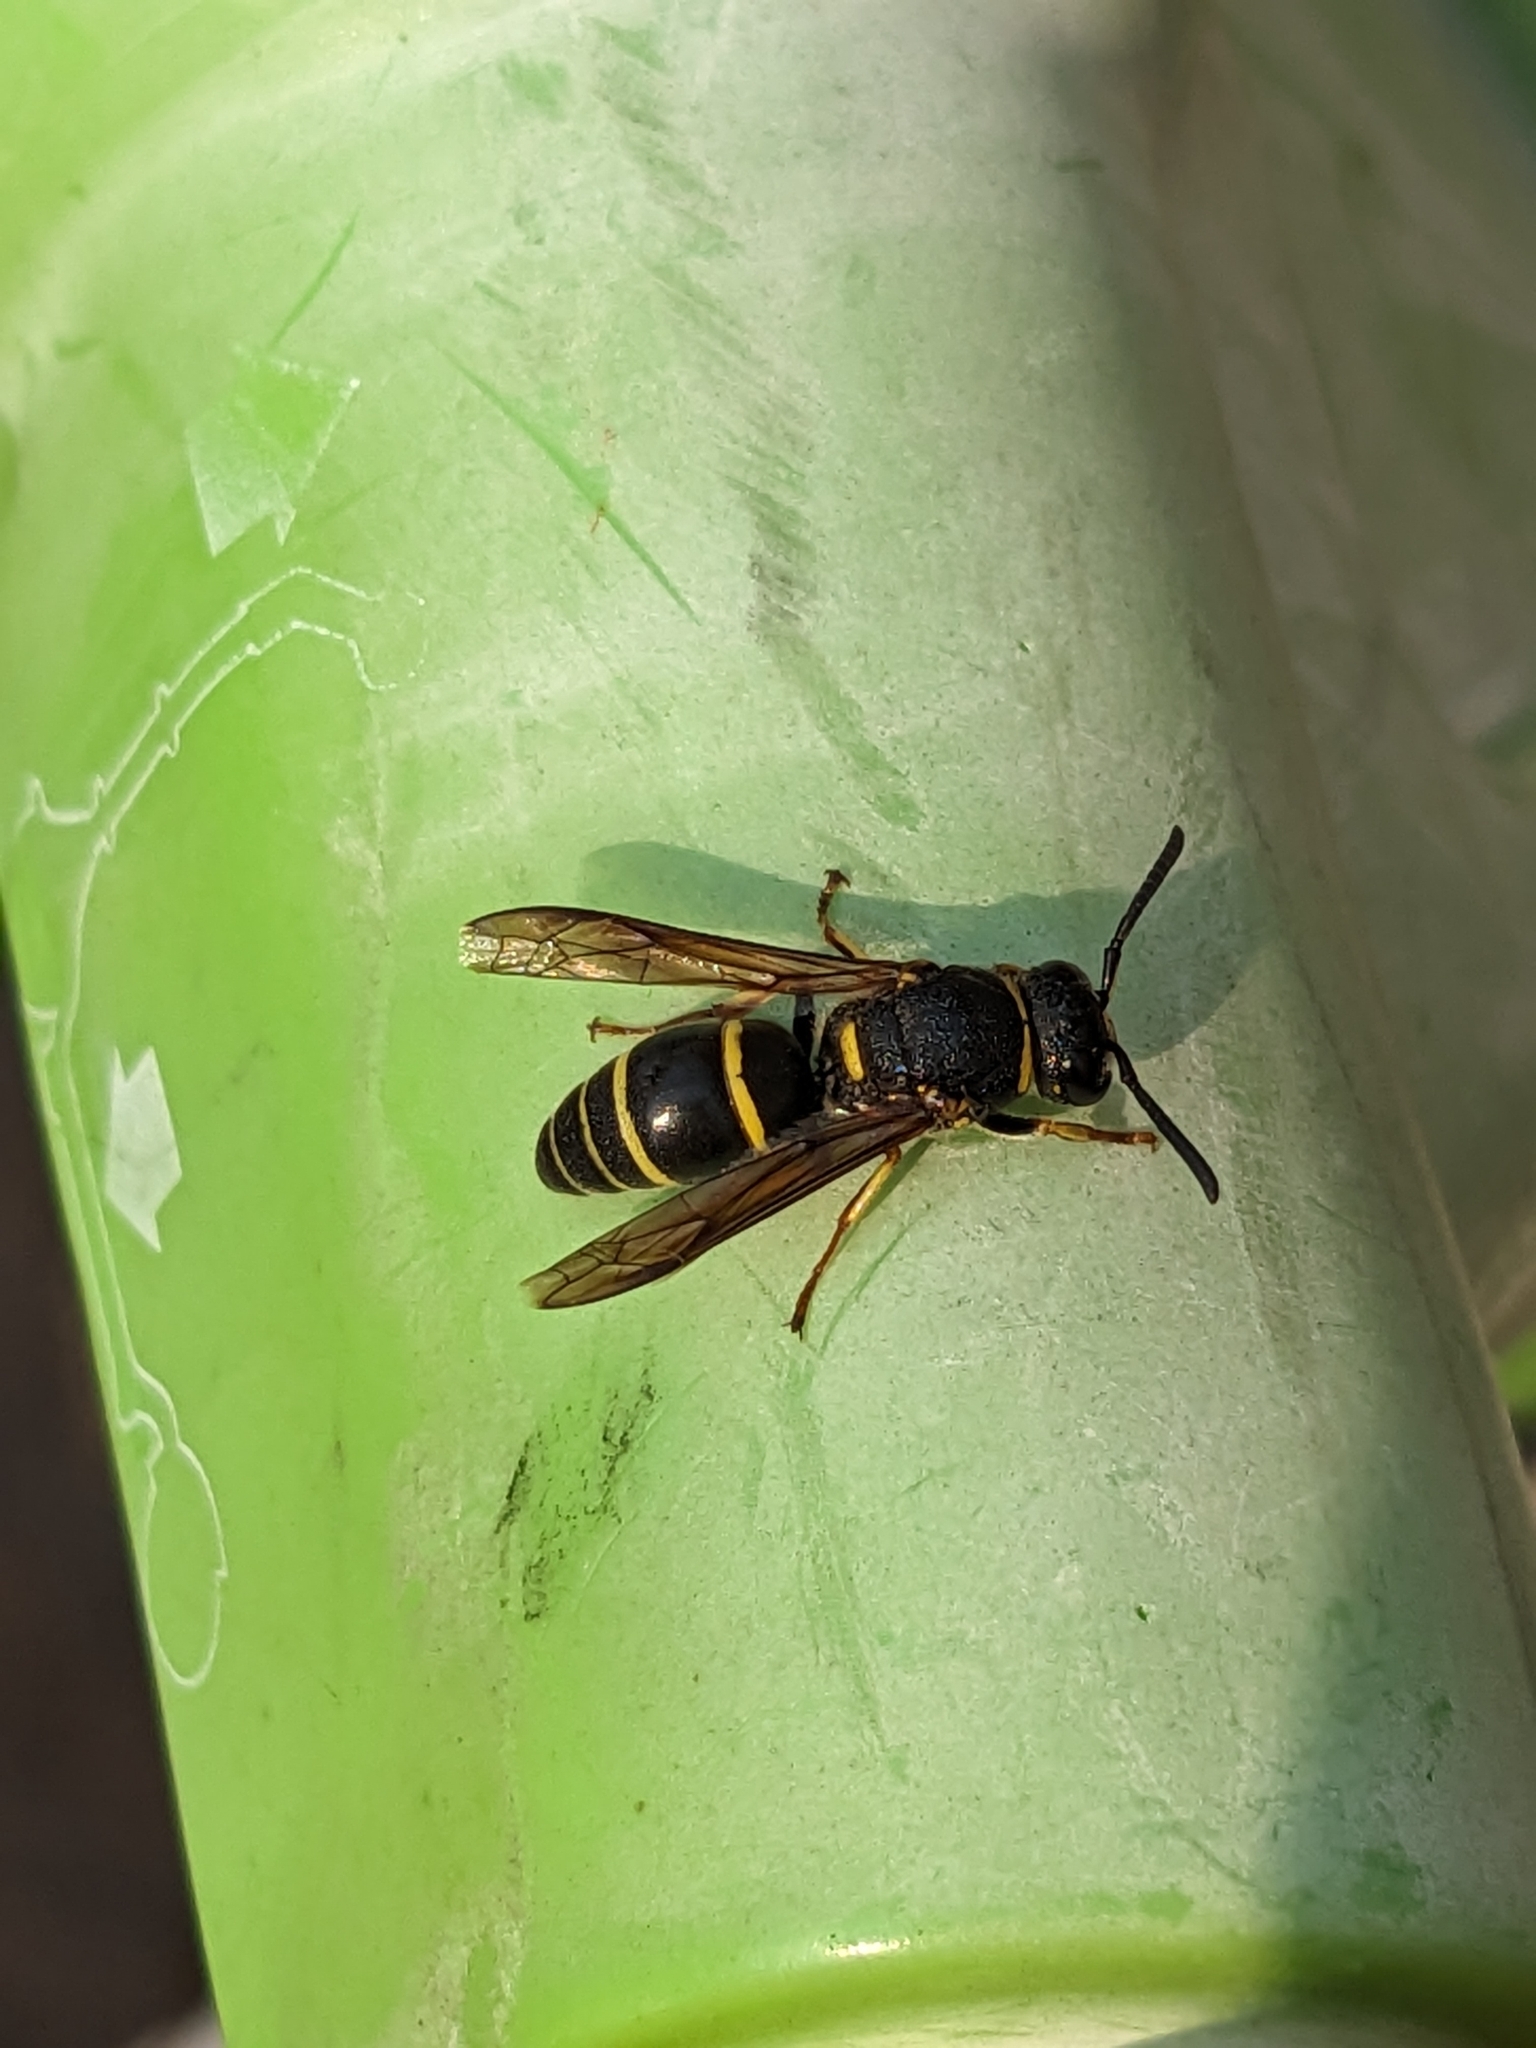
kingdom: Animalia
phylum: Arthropoda
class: Insecta
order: Hymenoptera
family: Eumenidae
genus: Euodynerus
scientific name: Euodynerus foraminatus
